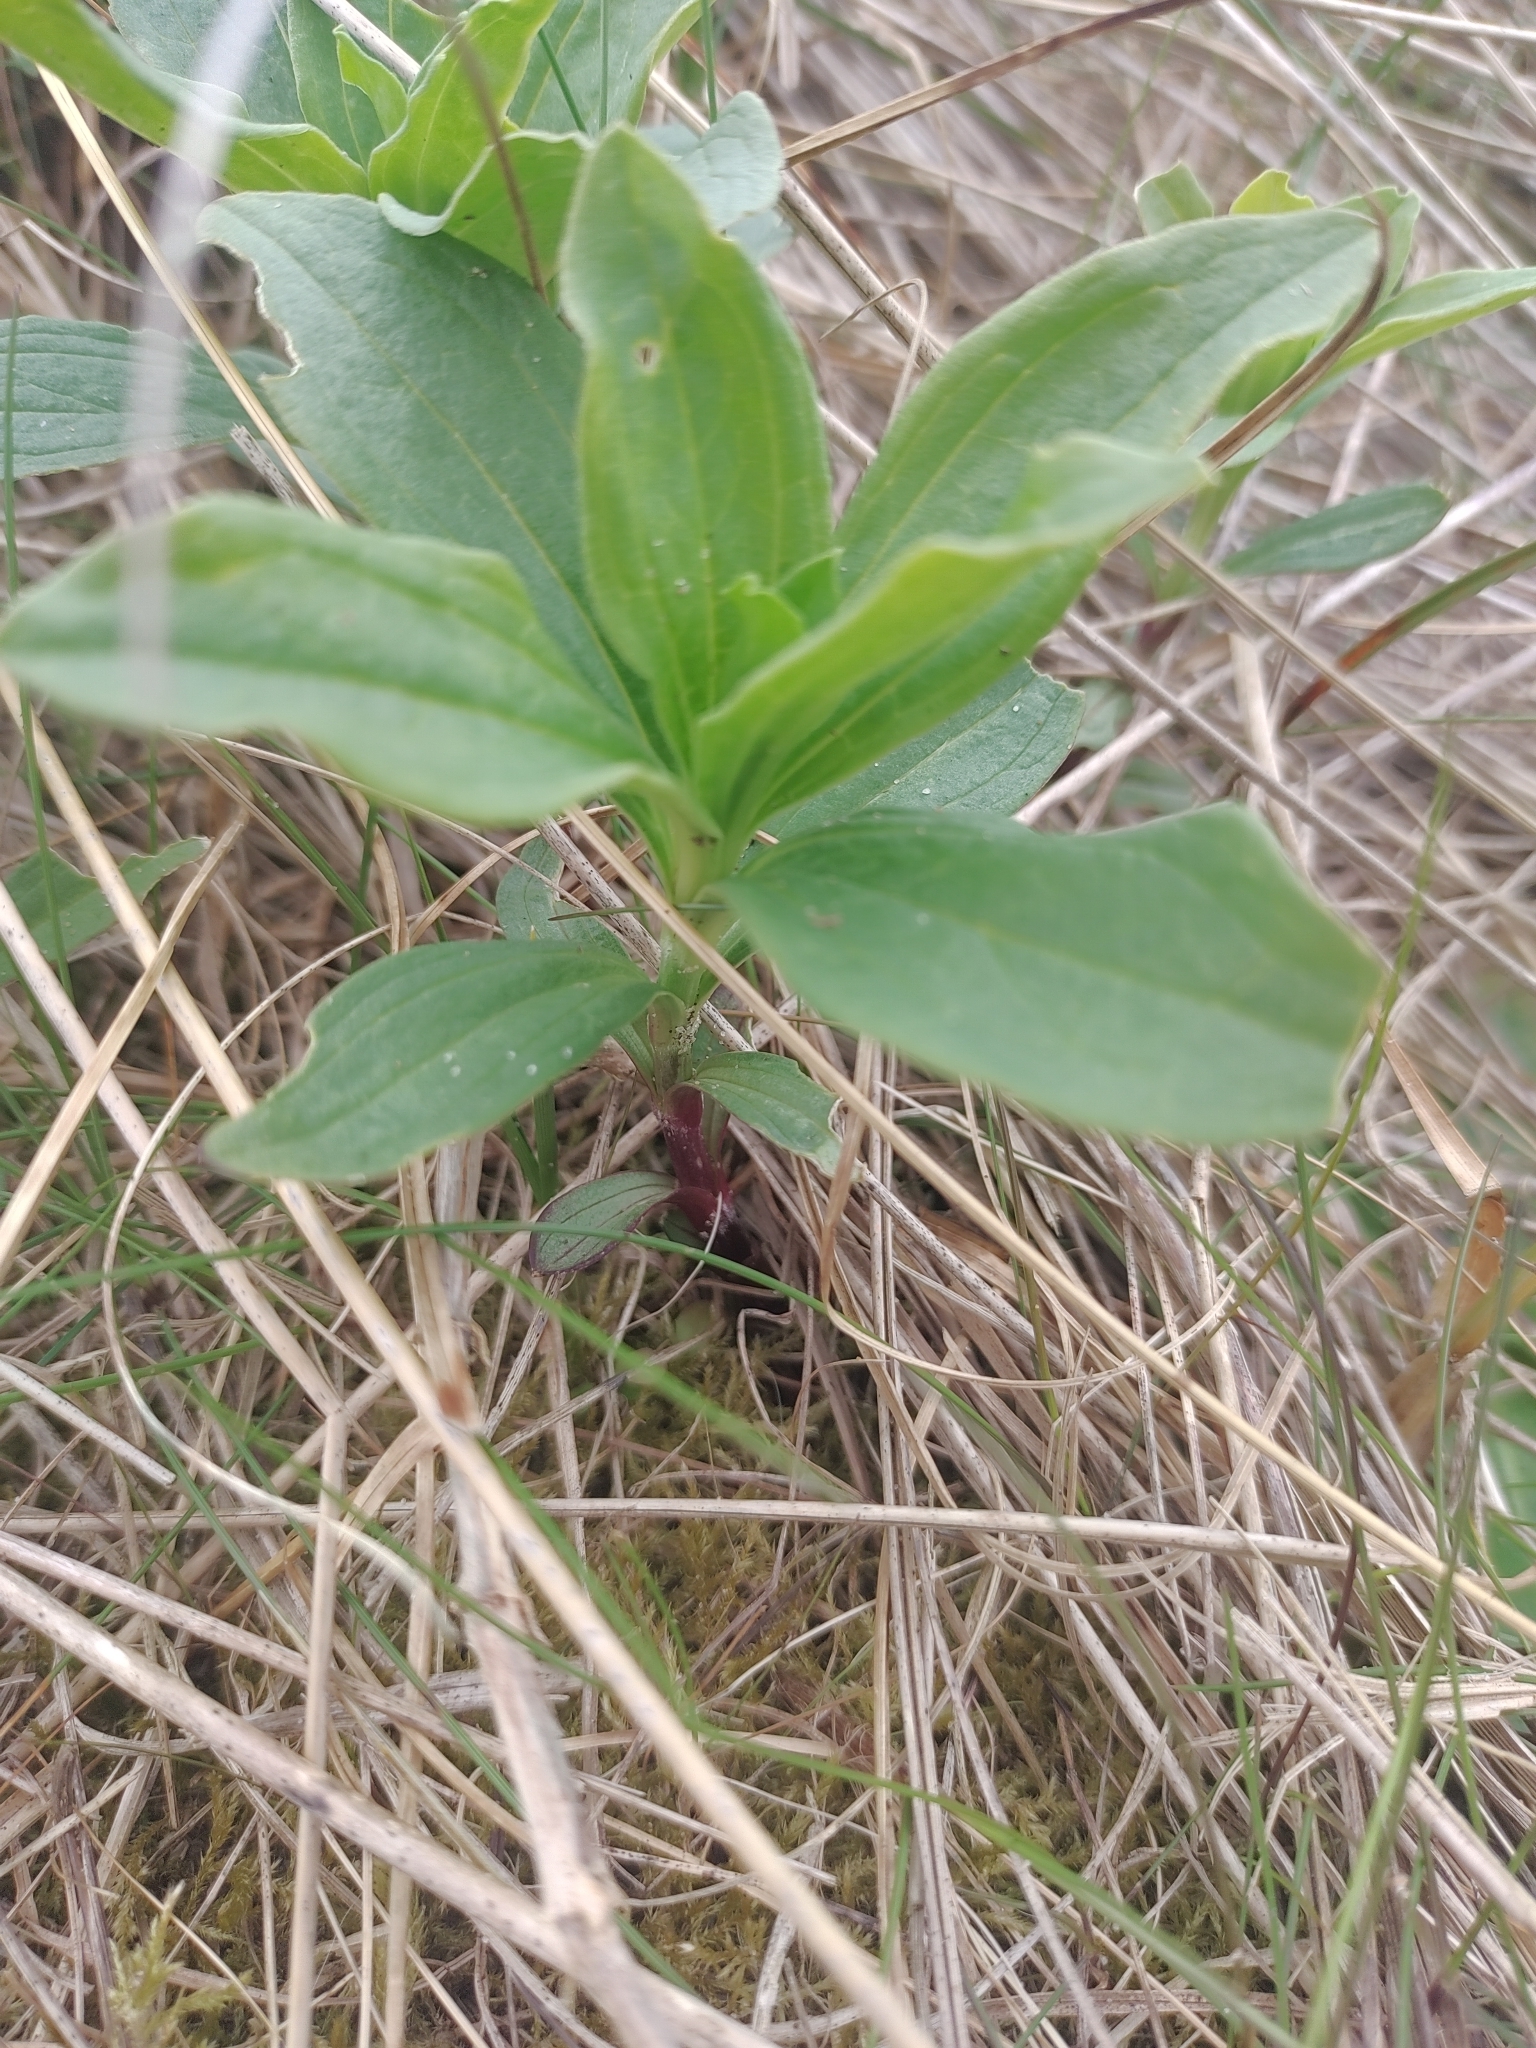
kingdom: Plantae
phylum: Tracheophyta
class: Magnoliopsida
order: Caryophyllales
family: Caryophyllaceae
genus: Saponaria
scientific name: Saponaria officinalis
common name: Soapwort
